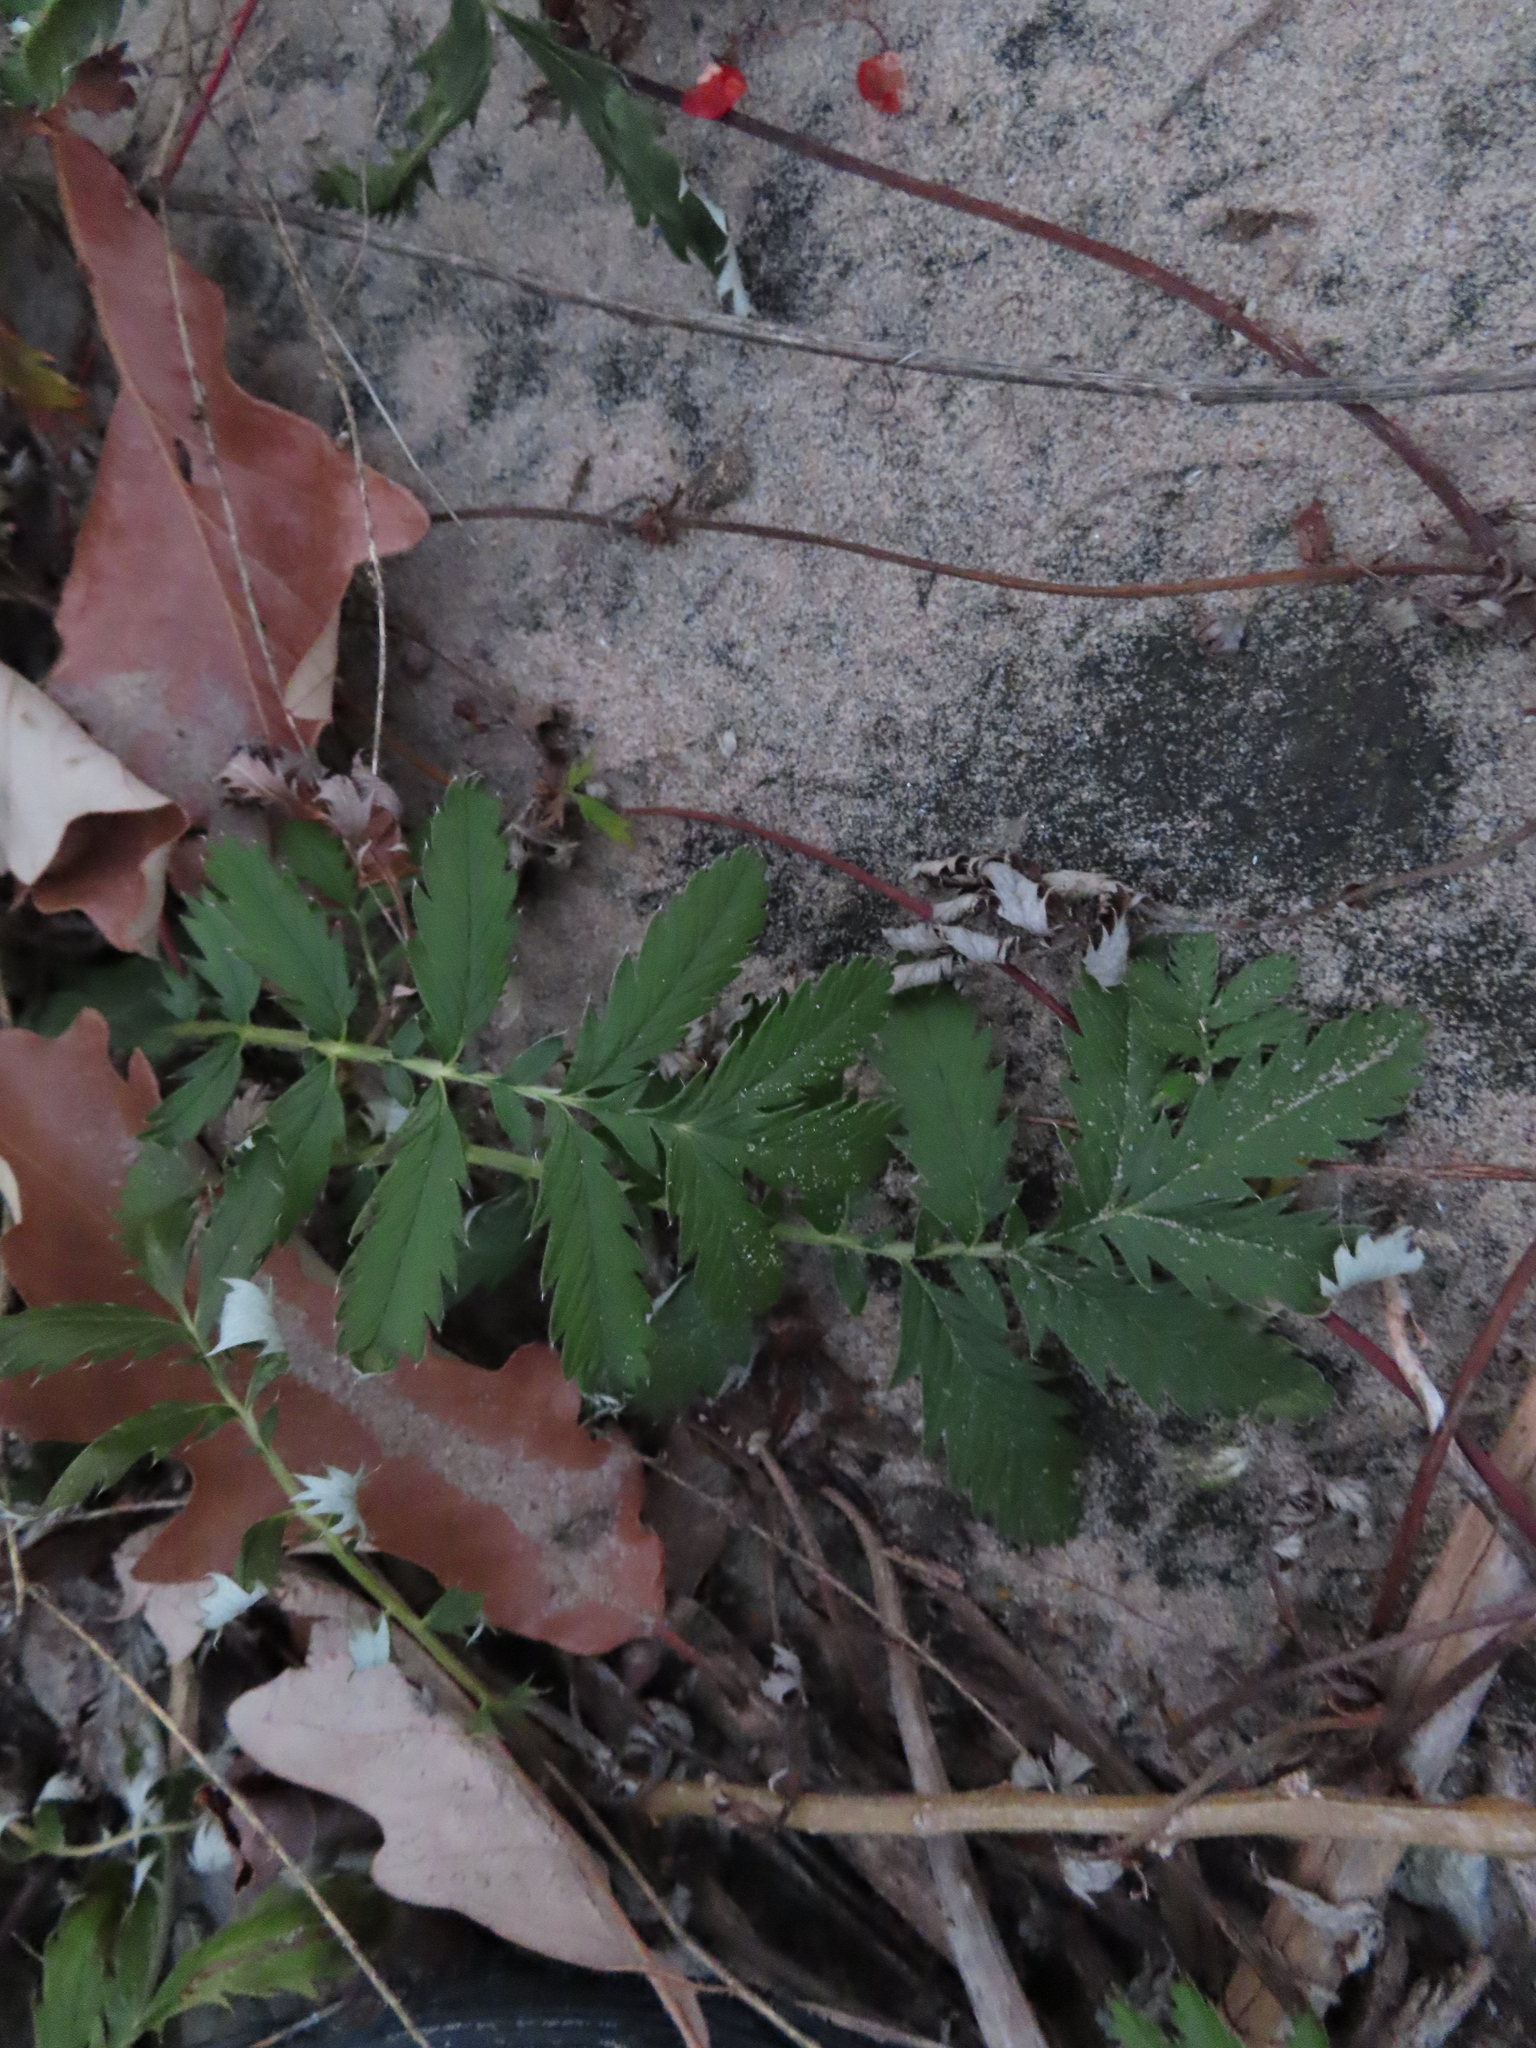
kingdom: Plantae
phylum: Tracheophyta
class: Magnoliopsida
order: Rosales
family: Rosaceae
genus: Argentina
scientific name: Argentina anserina
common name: Common silverweed
